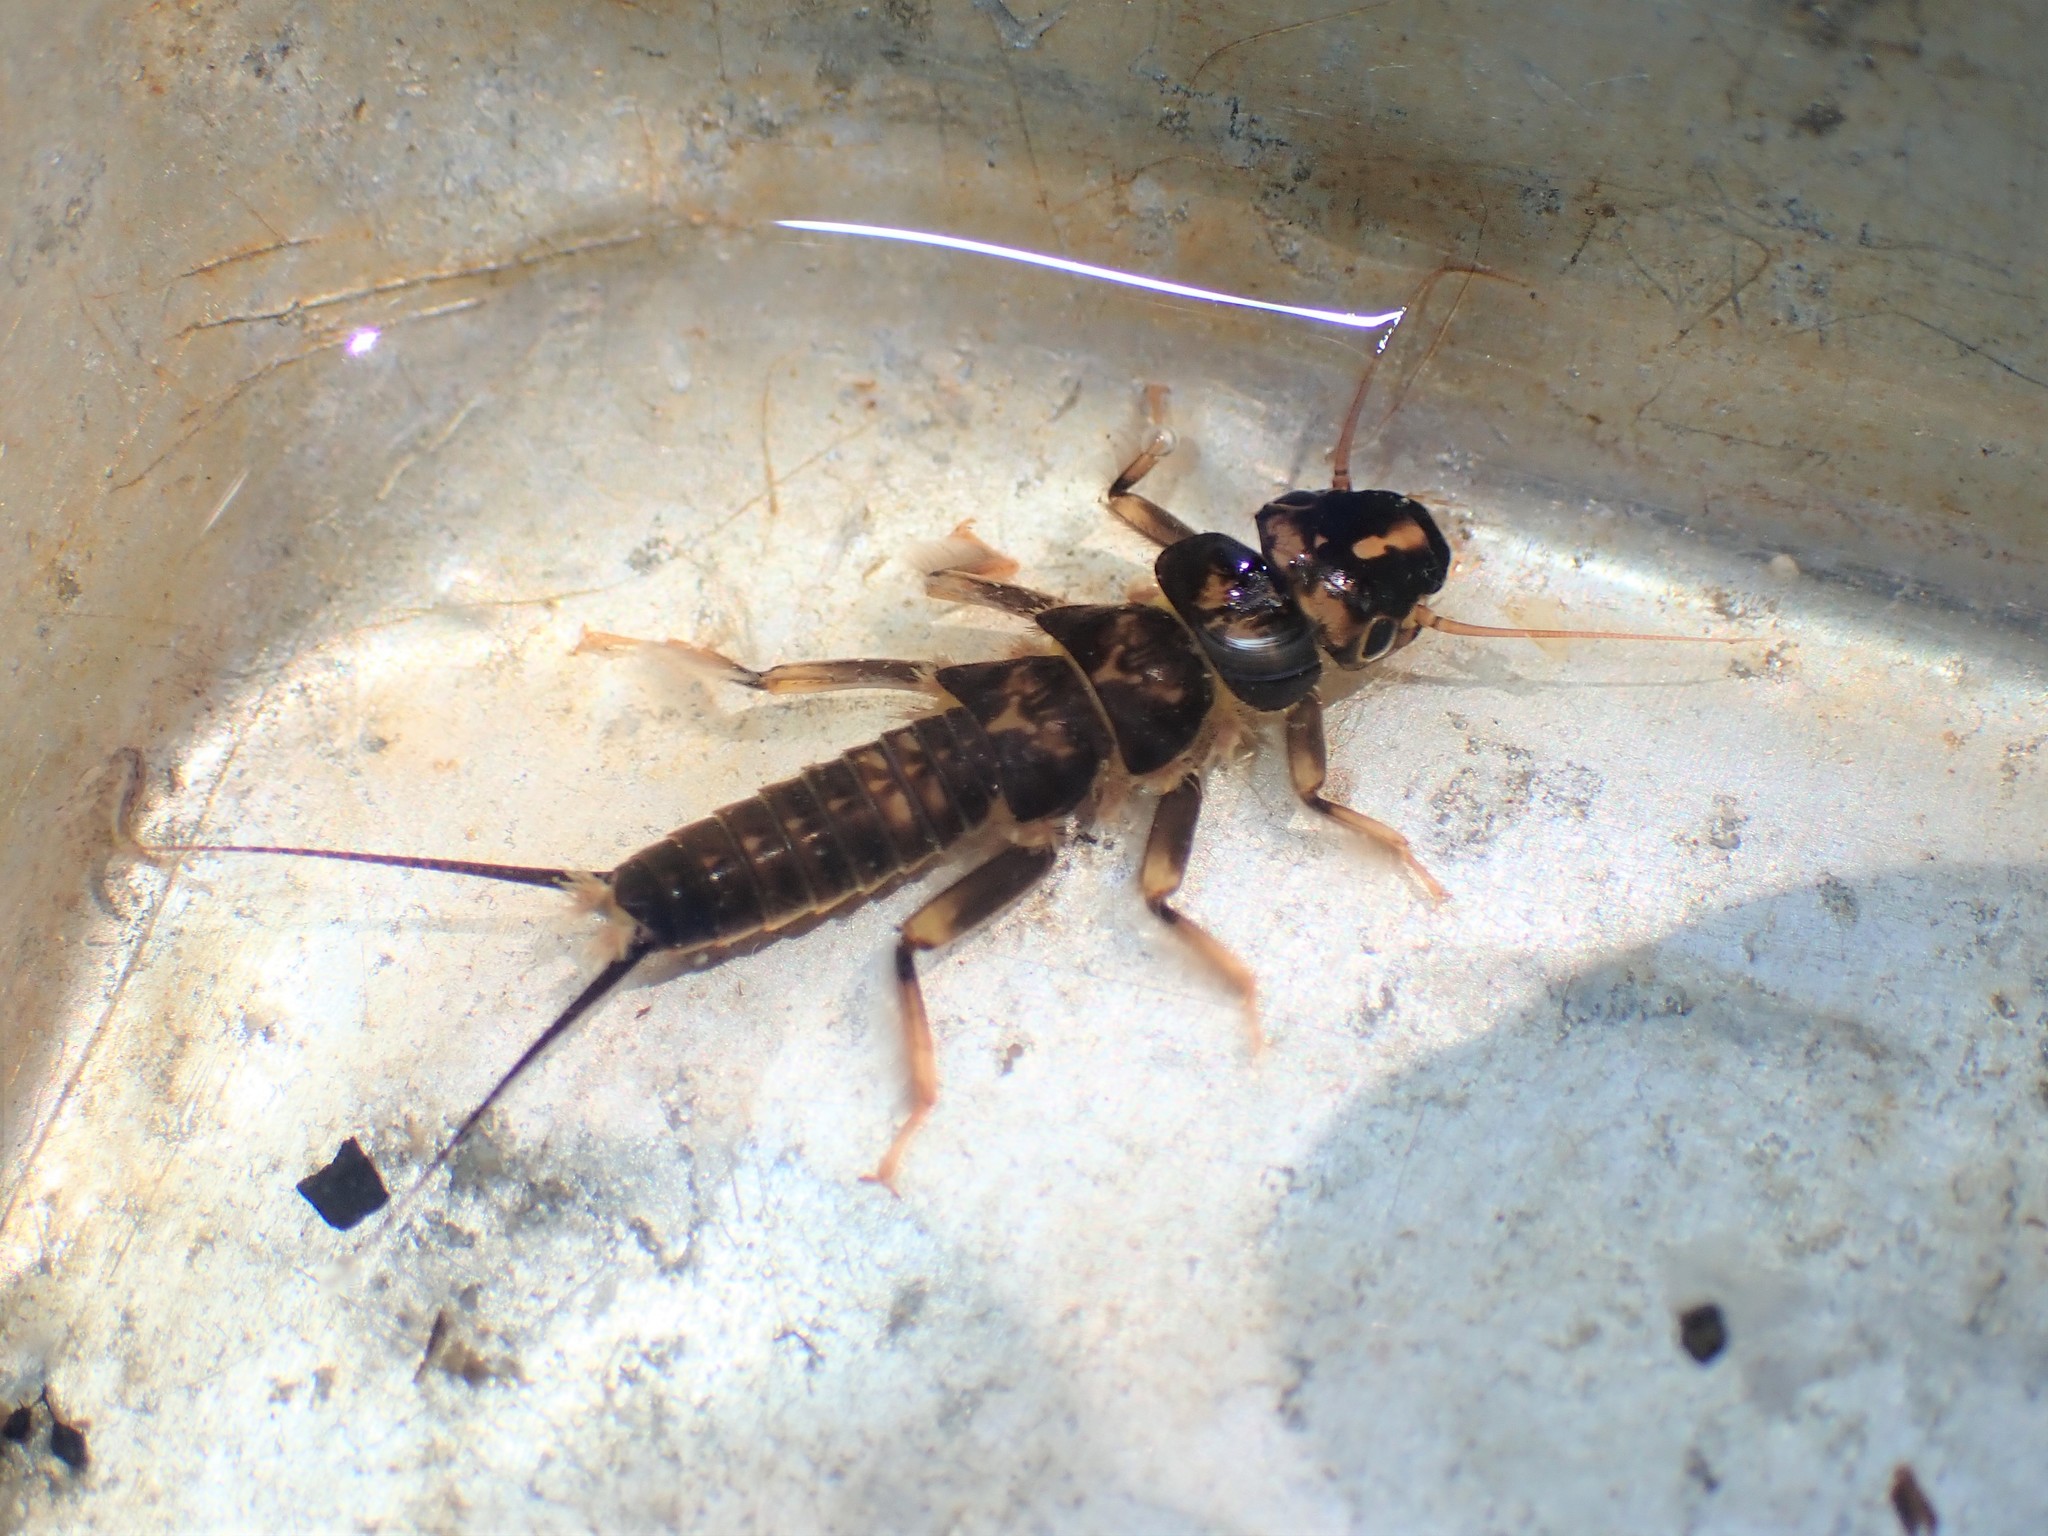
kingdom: Animalia
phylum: Arthropoda
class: Insecta
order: Plecoptera
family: Perlidae
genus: Hesperoperla
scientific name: Hesperoperla pacifica
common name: Golden stone
